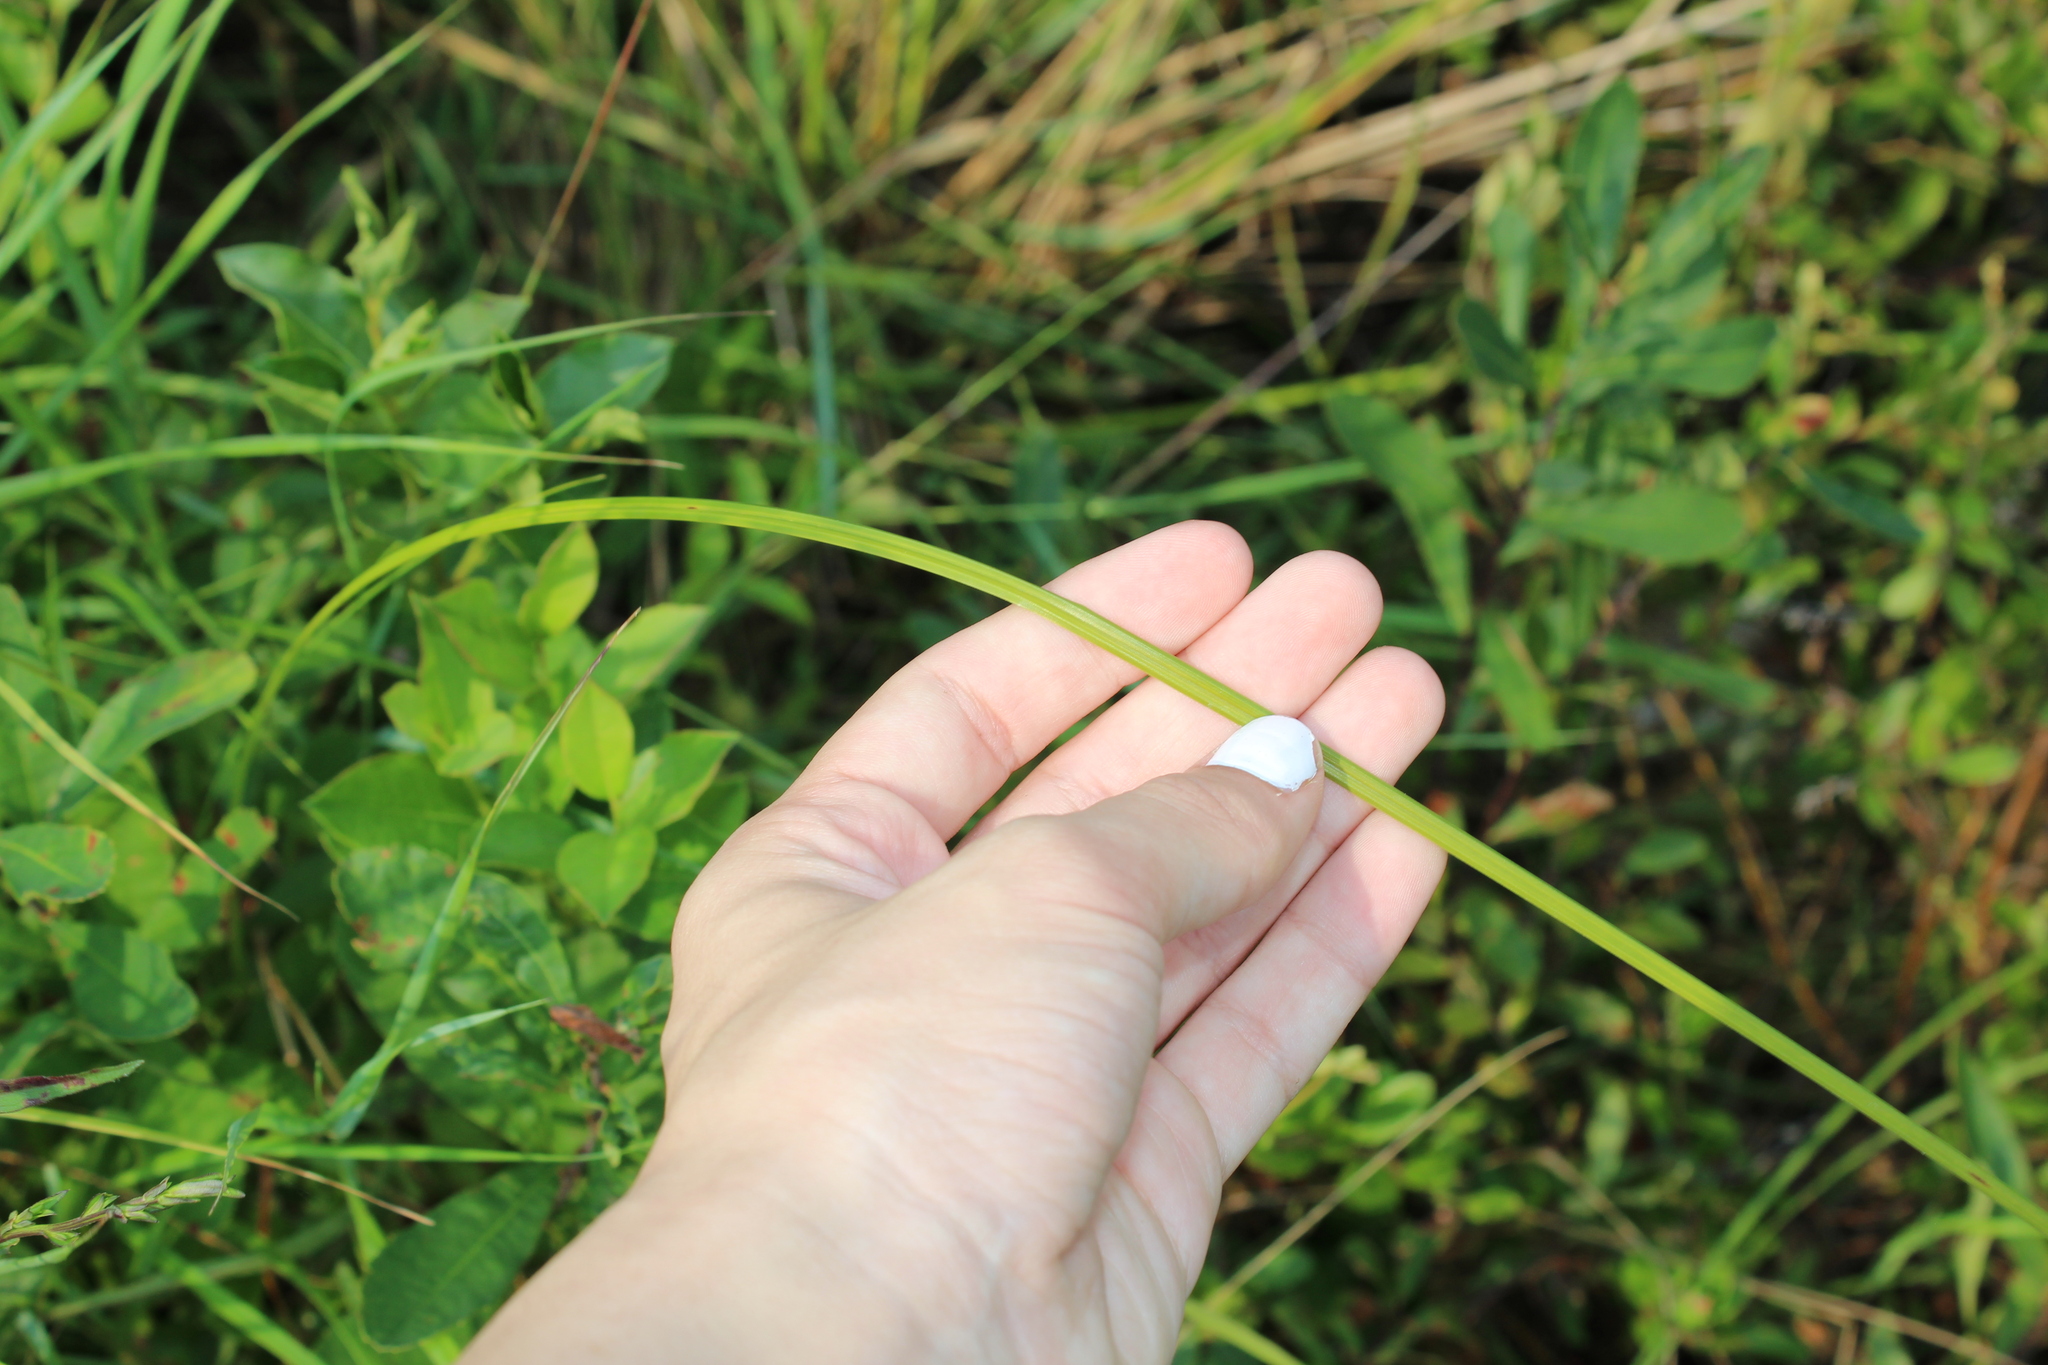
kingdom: Plantae
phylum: Tracheophyta
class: Liliopsida
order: Poales
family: Cyperaceae
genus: Carex
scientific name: Carex
